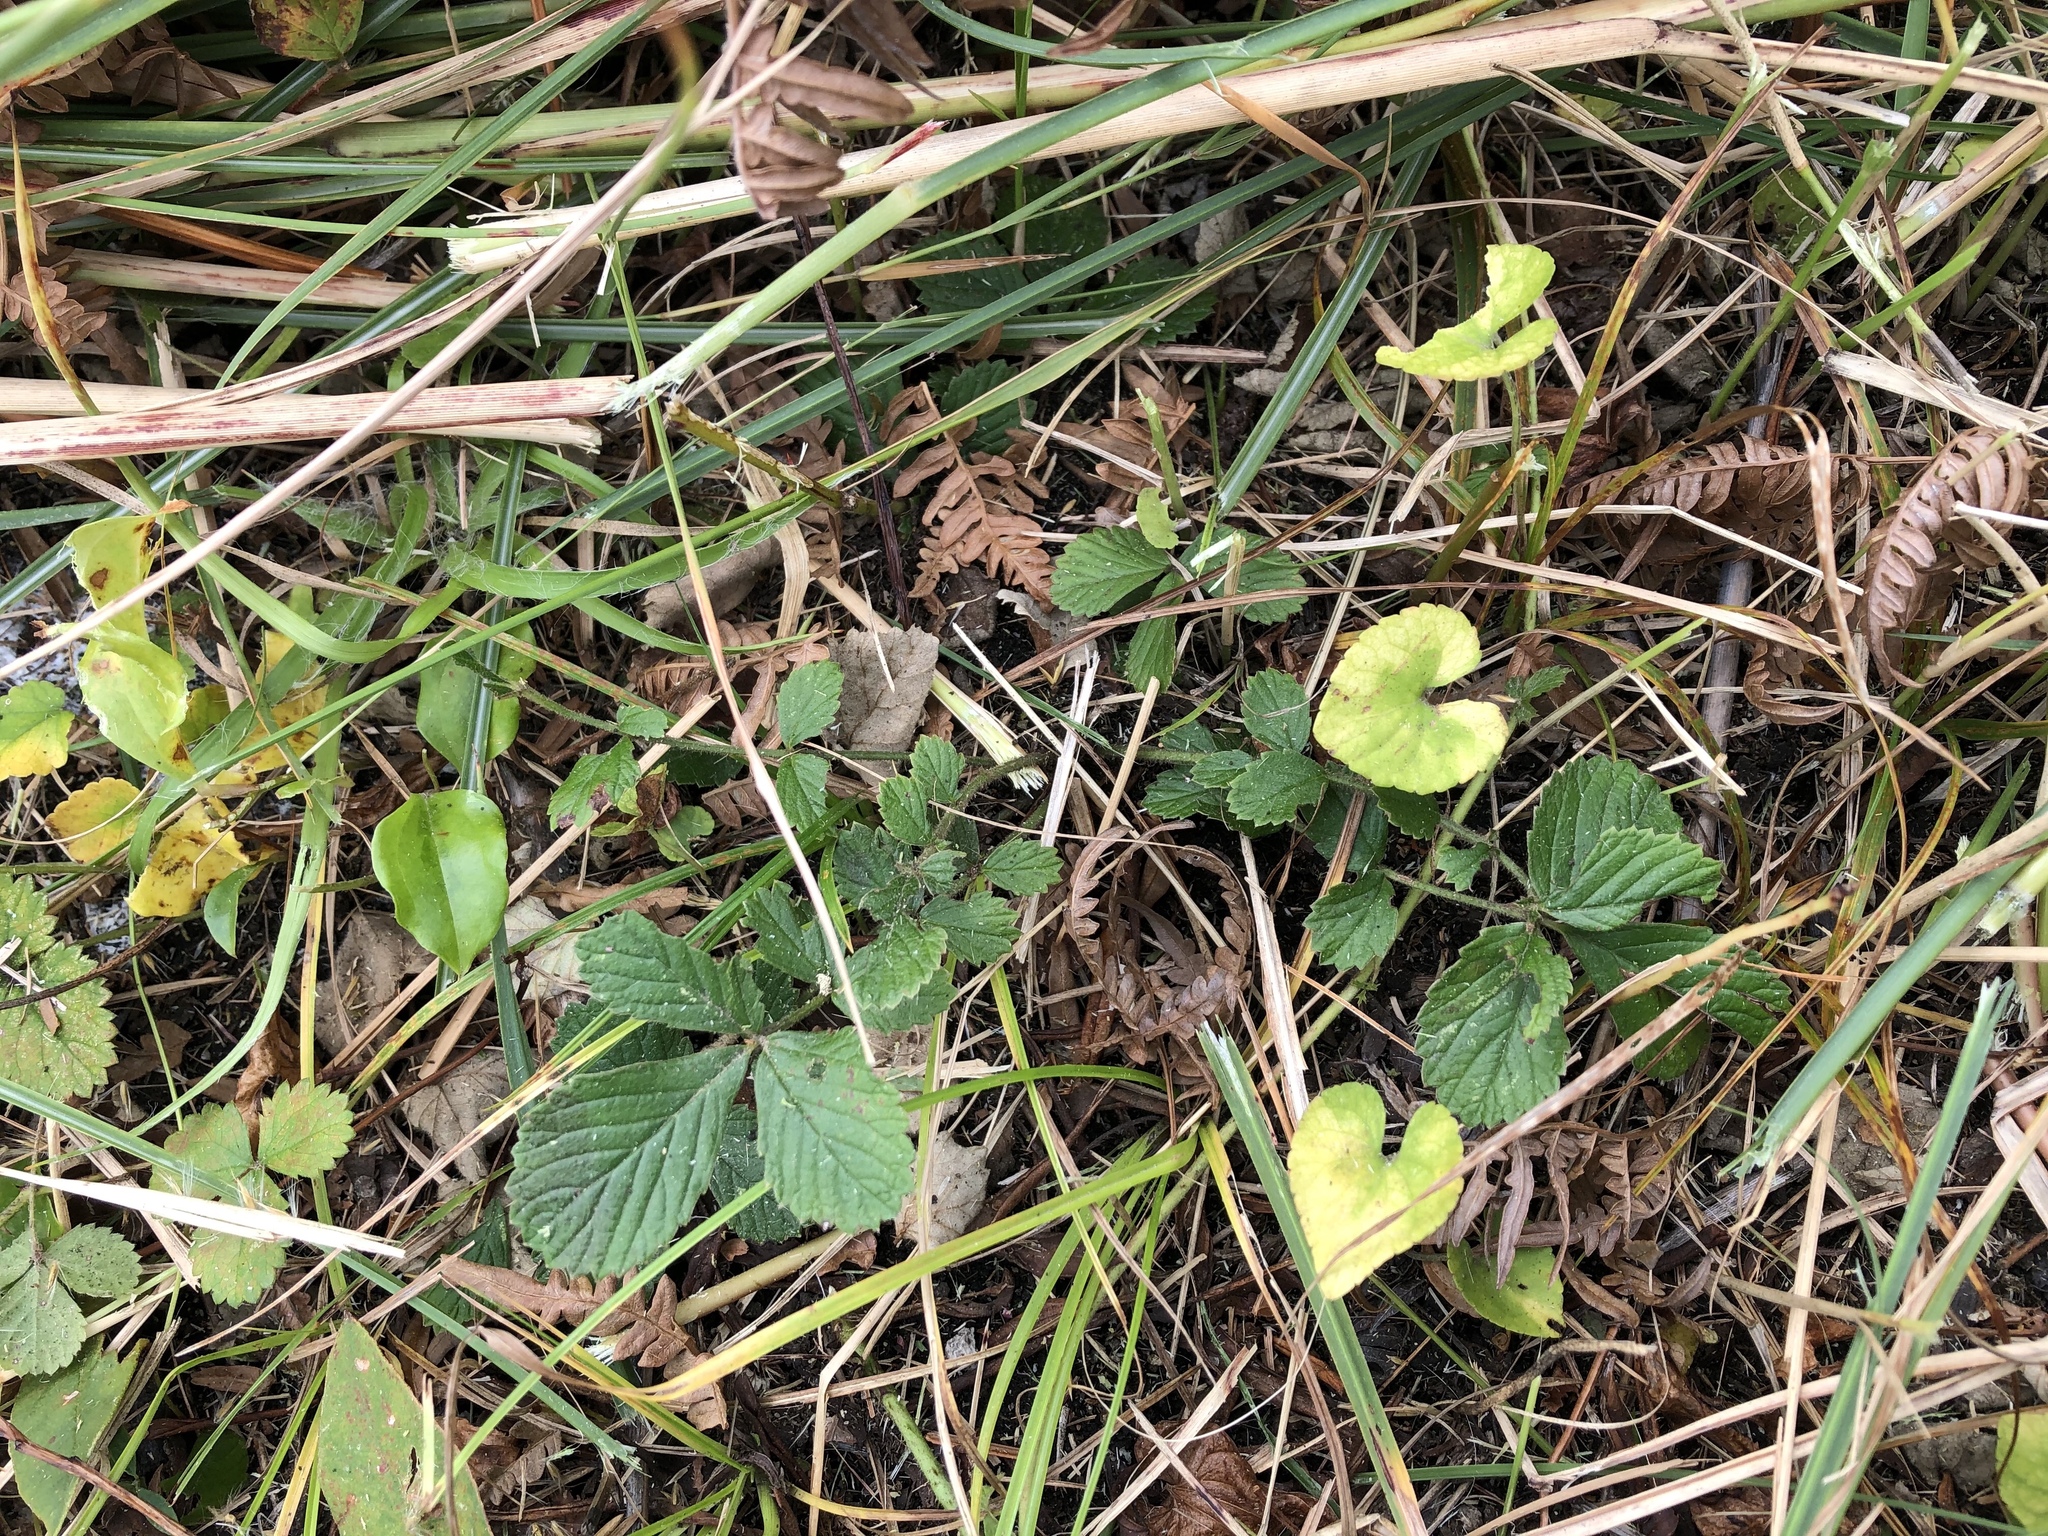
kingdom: Plantae
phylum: Tracheophyta
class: Magnoliopsida
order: Rosales
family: Rosaceae
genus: Potentilla
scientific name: Potentilla stolonifera
